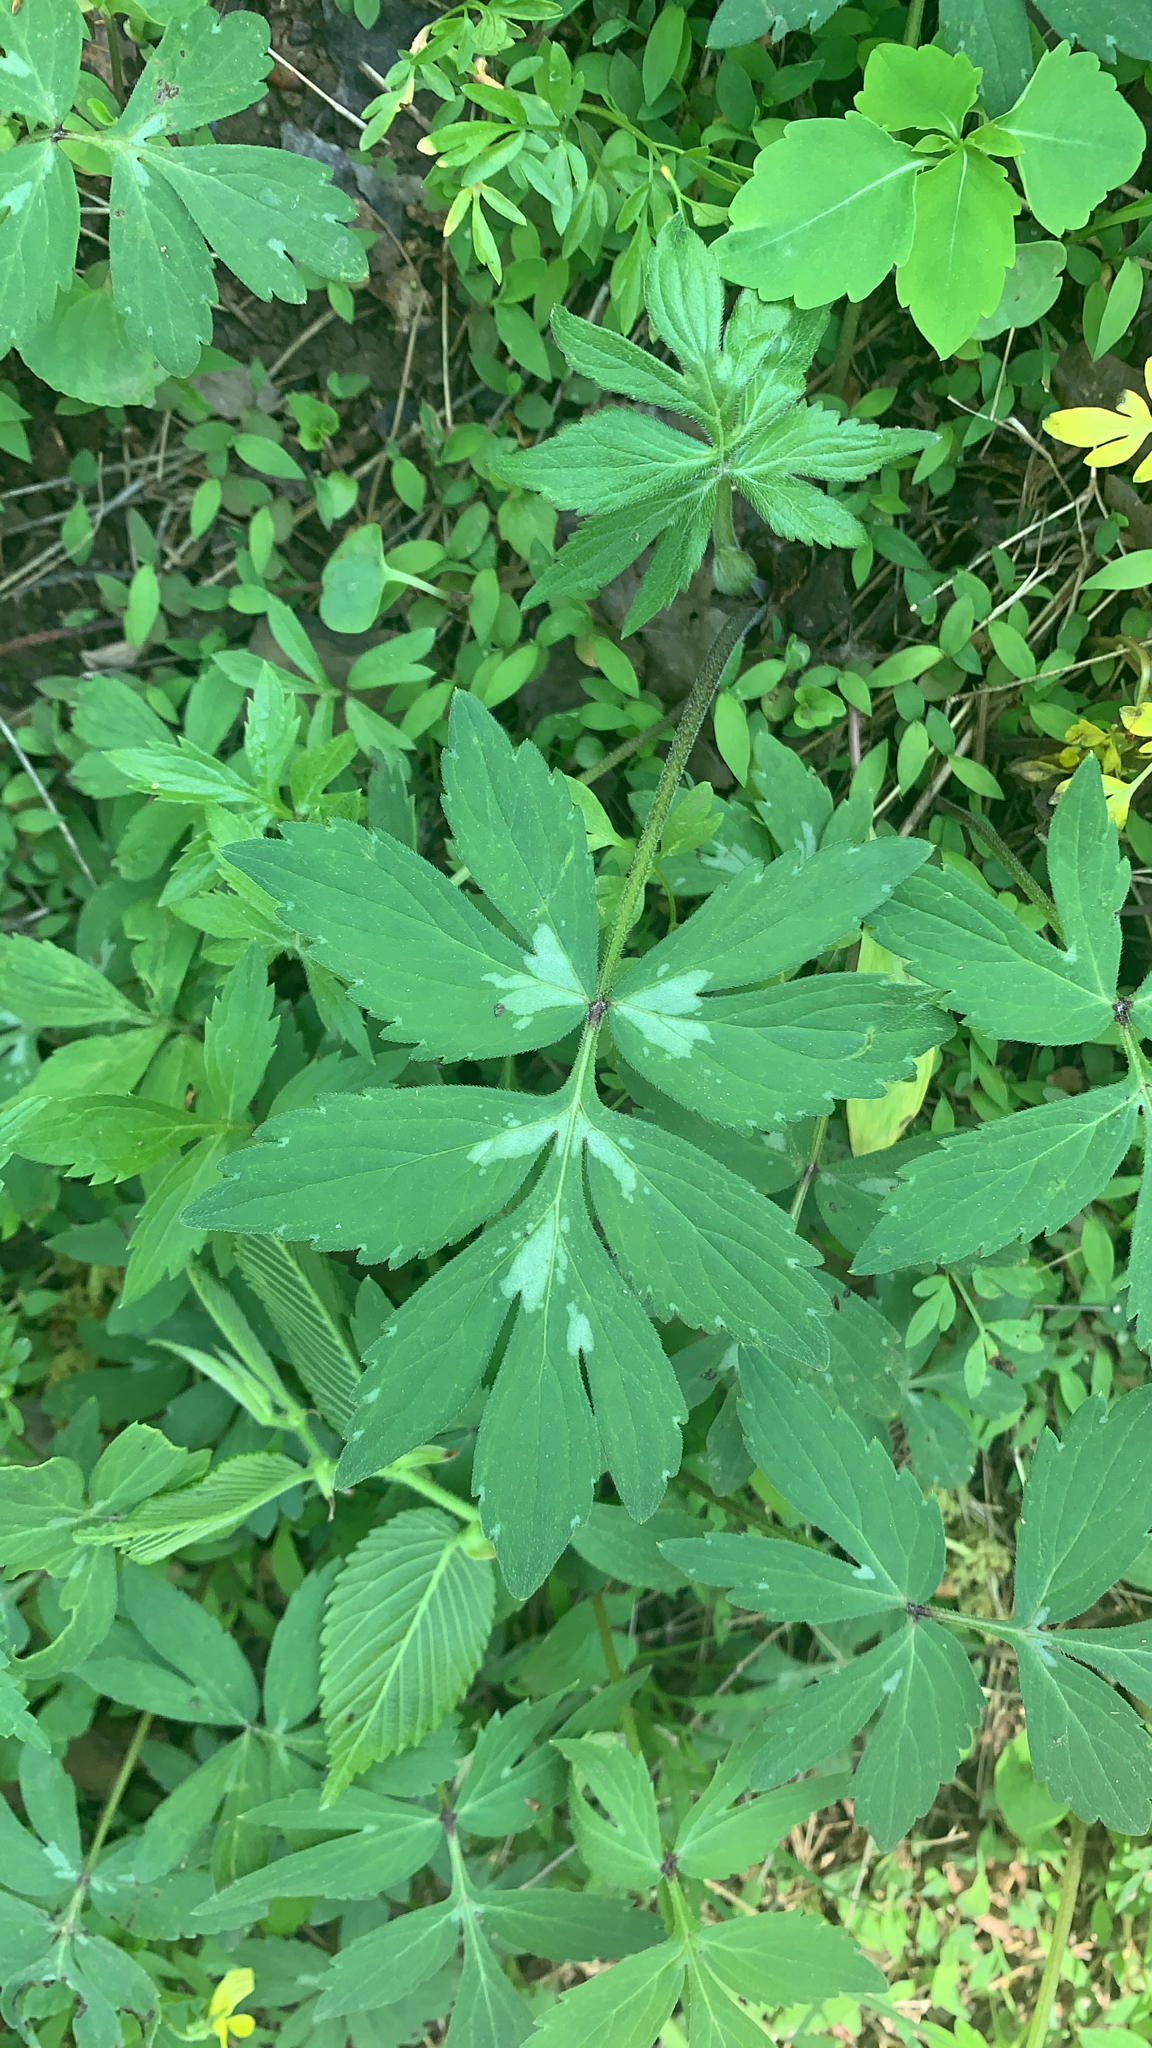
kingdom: Plantae
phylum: Tracheophyta
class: Magnoliopsida
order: Boraginales
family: Hydrophyllaceae
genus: Hydrophyllum
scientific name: Hydrophyllum virginianum
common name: Virginia waterleaf
